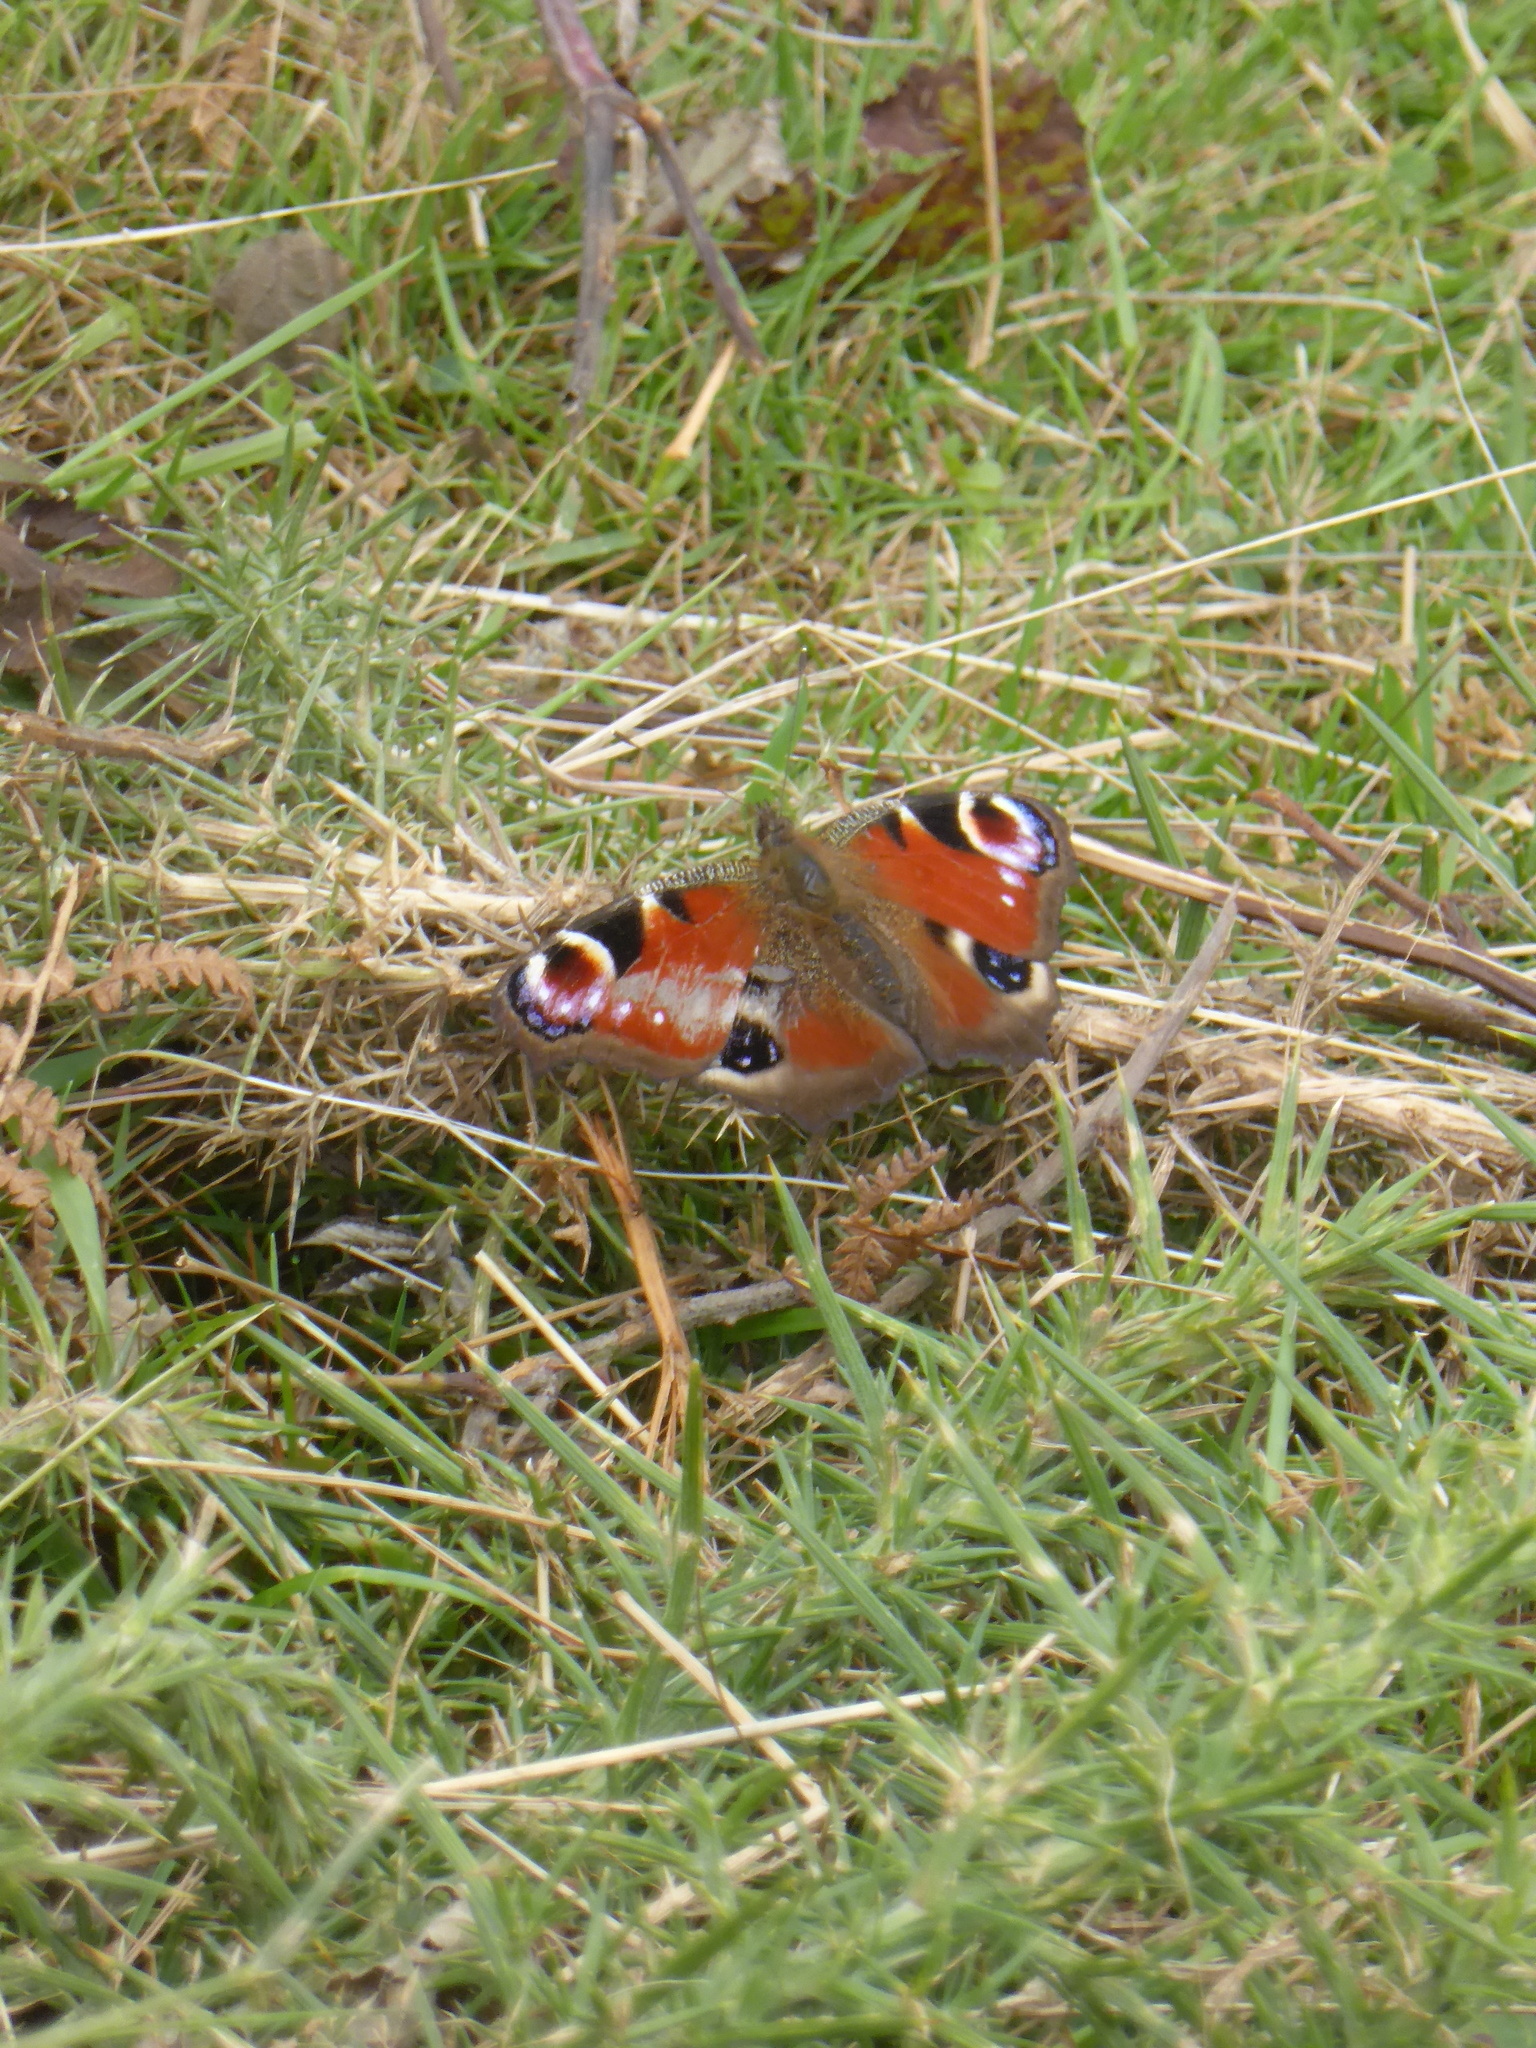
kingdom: Animalia
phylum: Arthropoda
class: Insecta
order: Lepidoptera
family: Nymphalidae
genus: Aglais
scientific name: Aglais io
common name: Peacock
